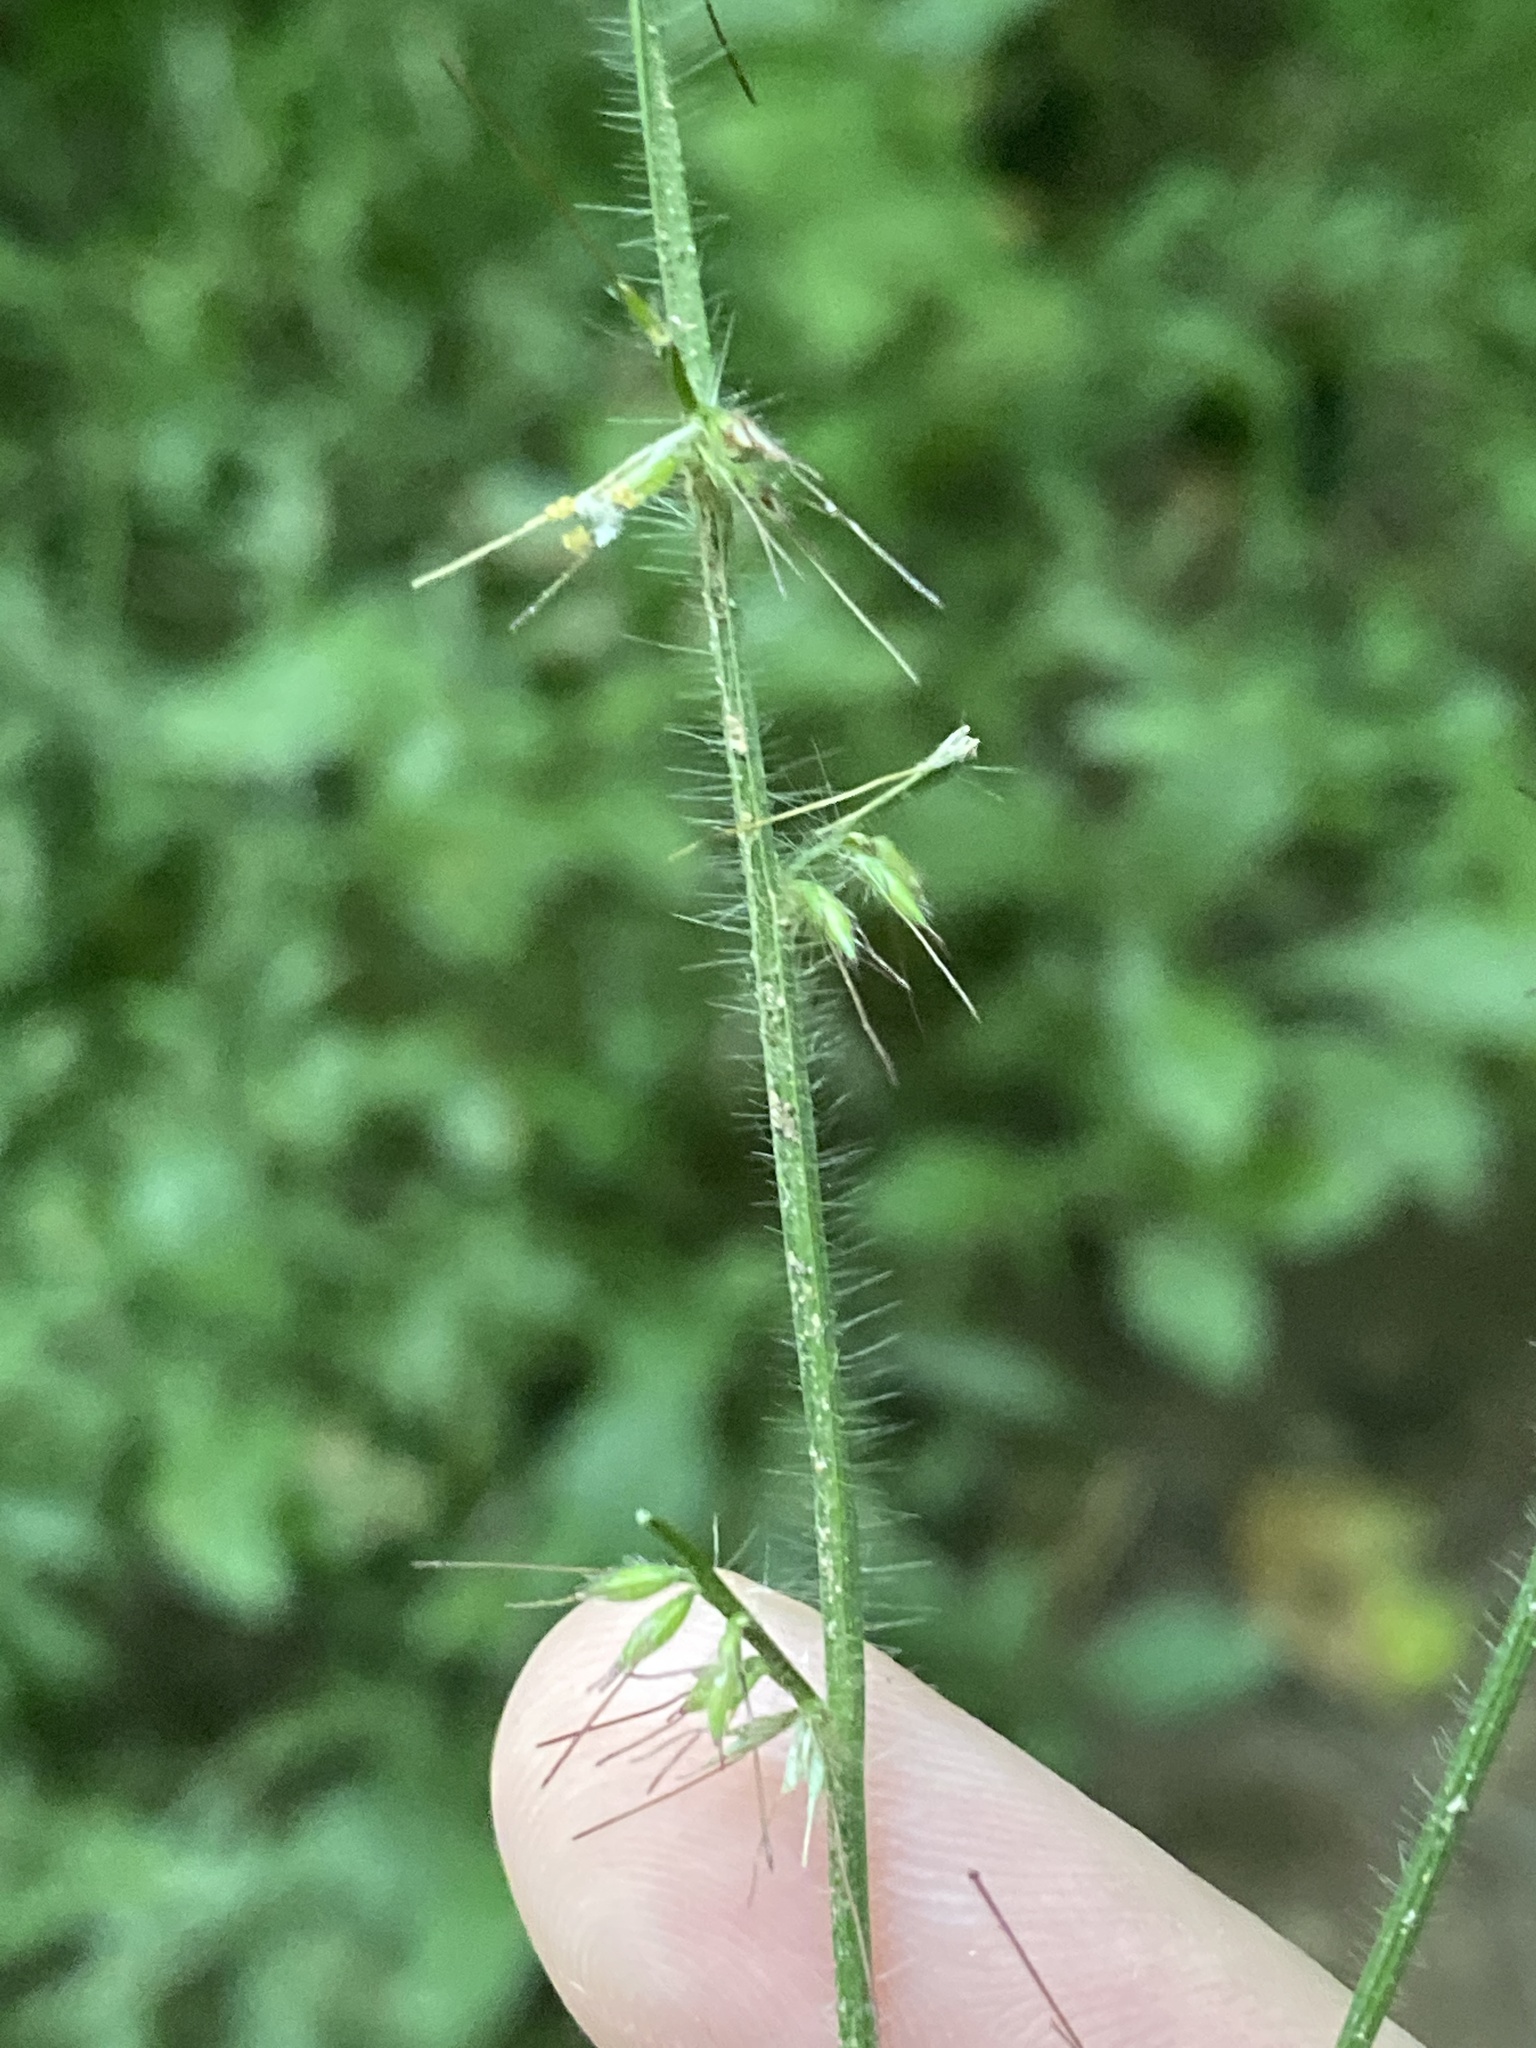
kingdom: Plantae
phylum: Tracheophyta
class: Liliopsida
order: Poales
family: Poaceae
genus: Oplismenus
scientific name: Oplismenus undulatifolius
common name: Wavyleaf basketgrass
